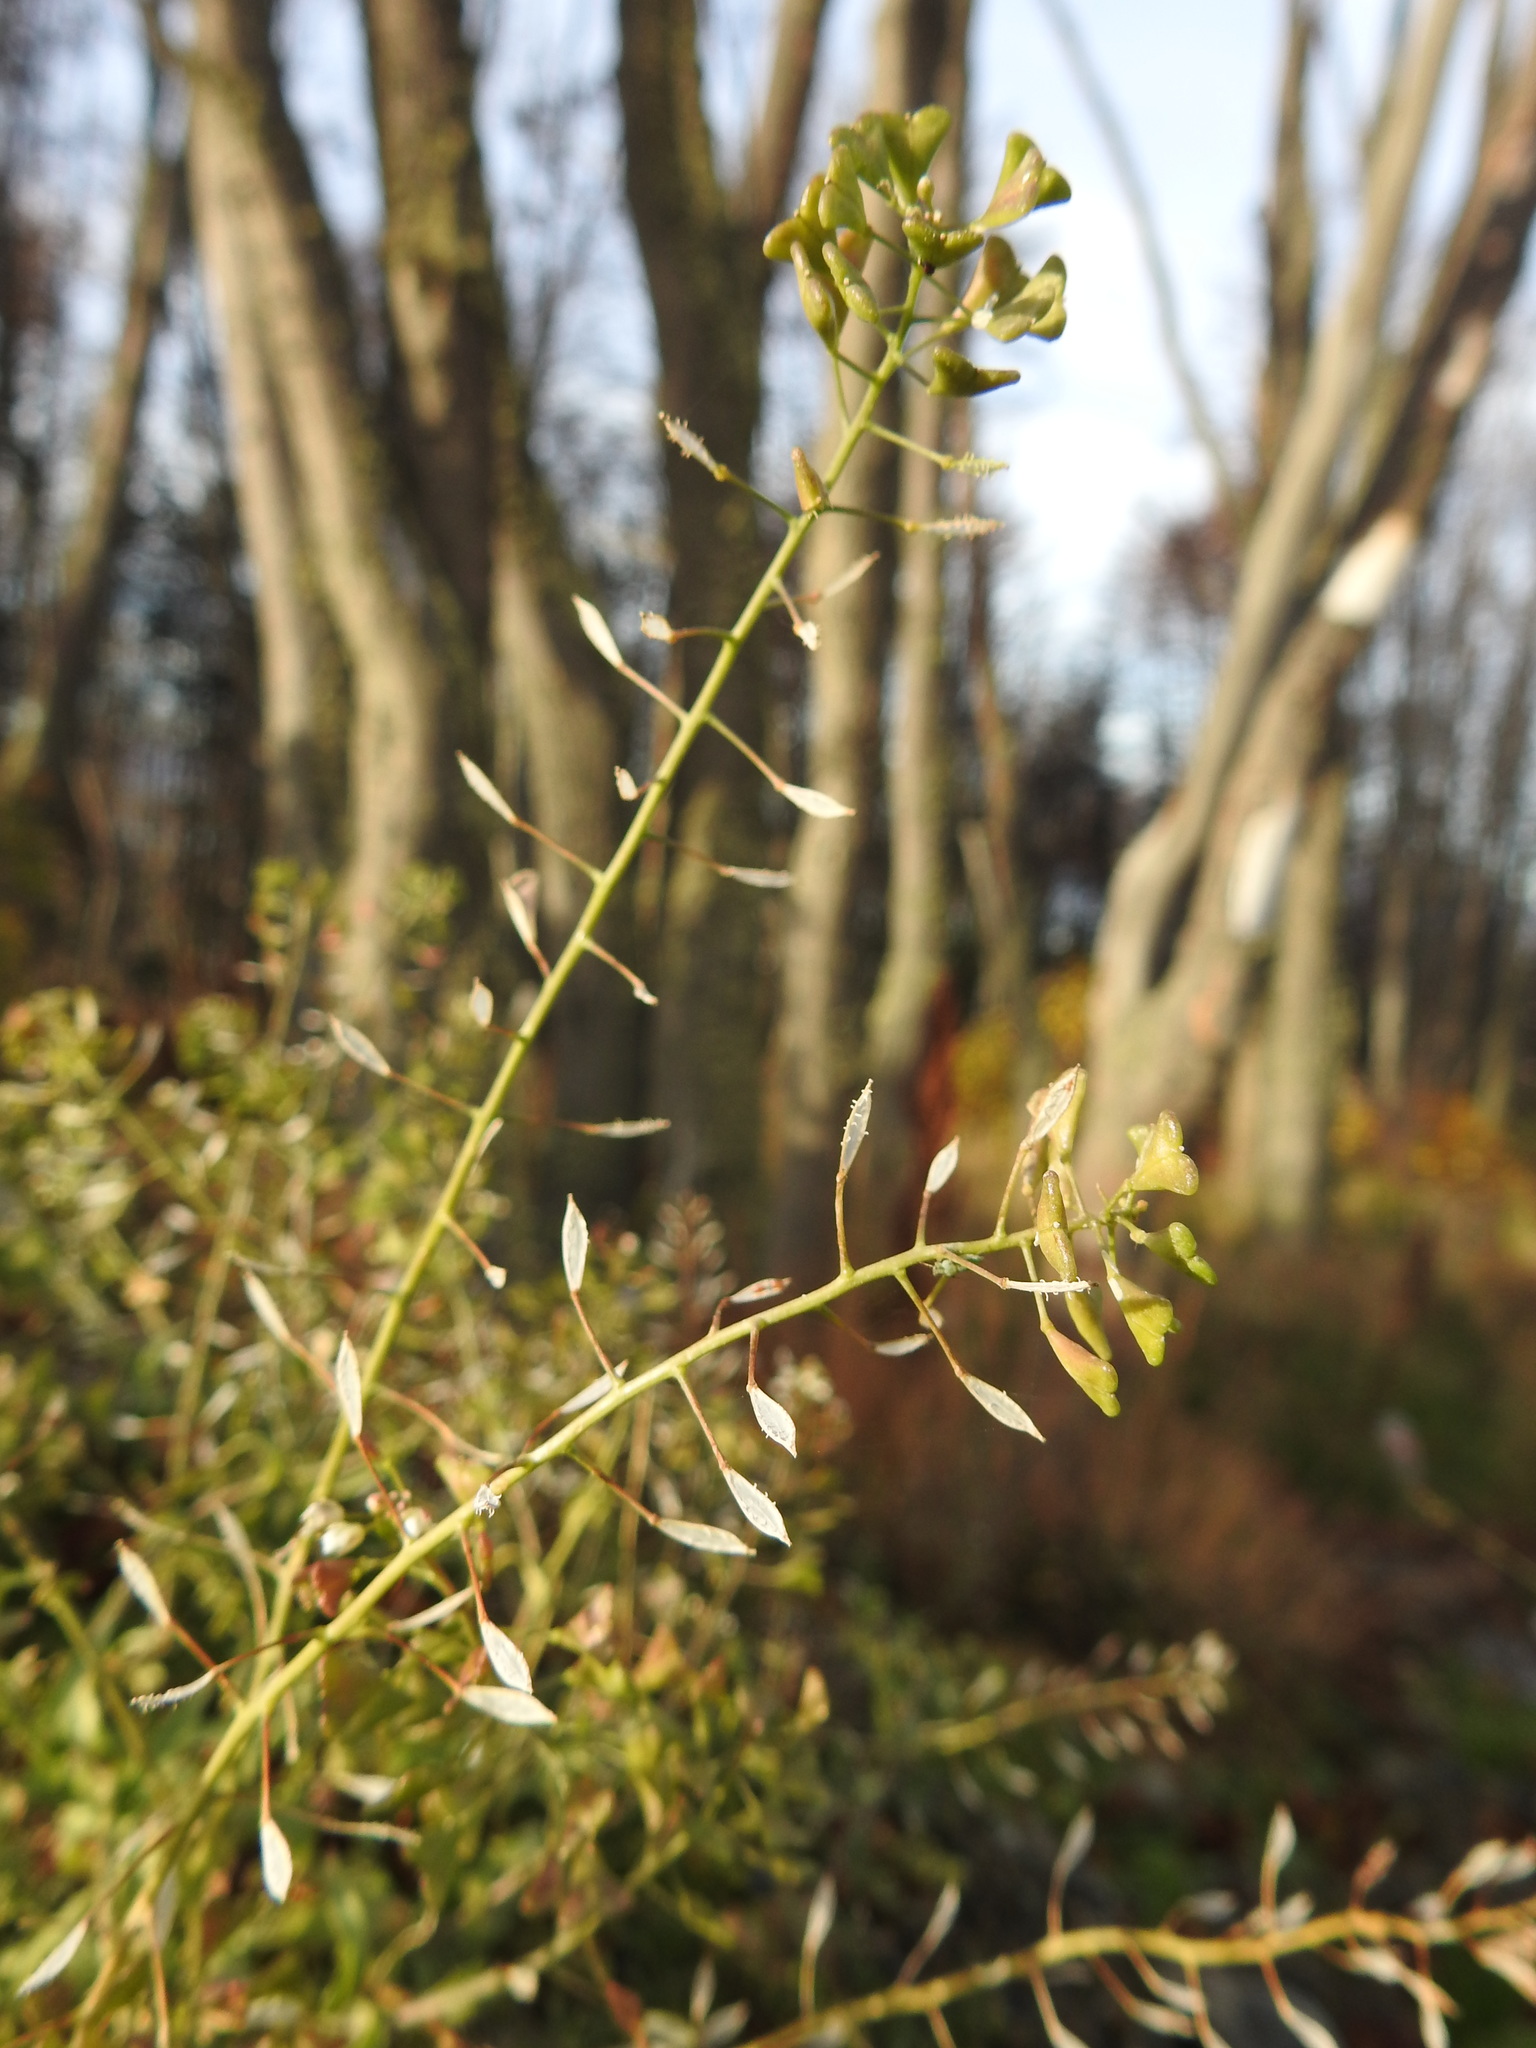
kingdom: Plantae
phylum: Tracheophyta
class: Magnoliopsida
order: Brassicales
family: Brassicaceae
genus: Capsella
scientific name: Capsella bursa-pastoris
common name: Shepherd's purse
